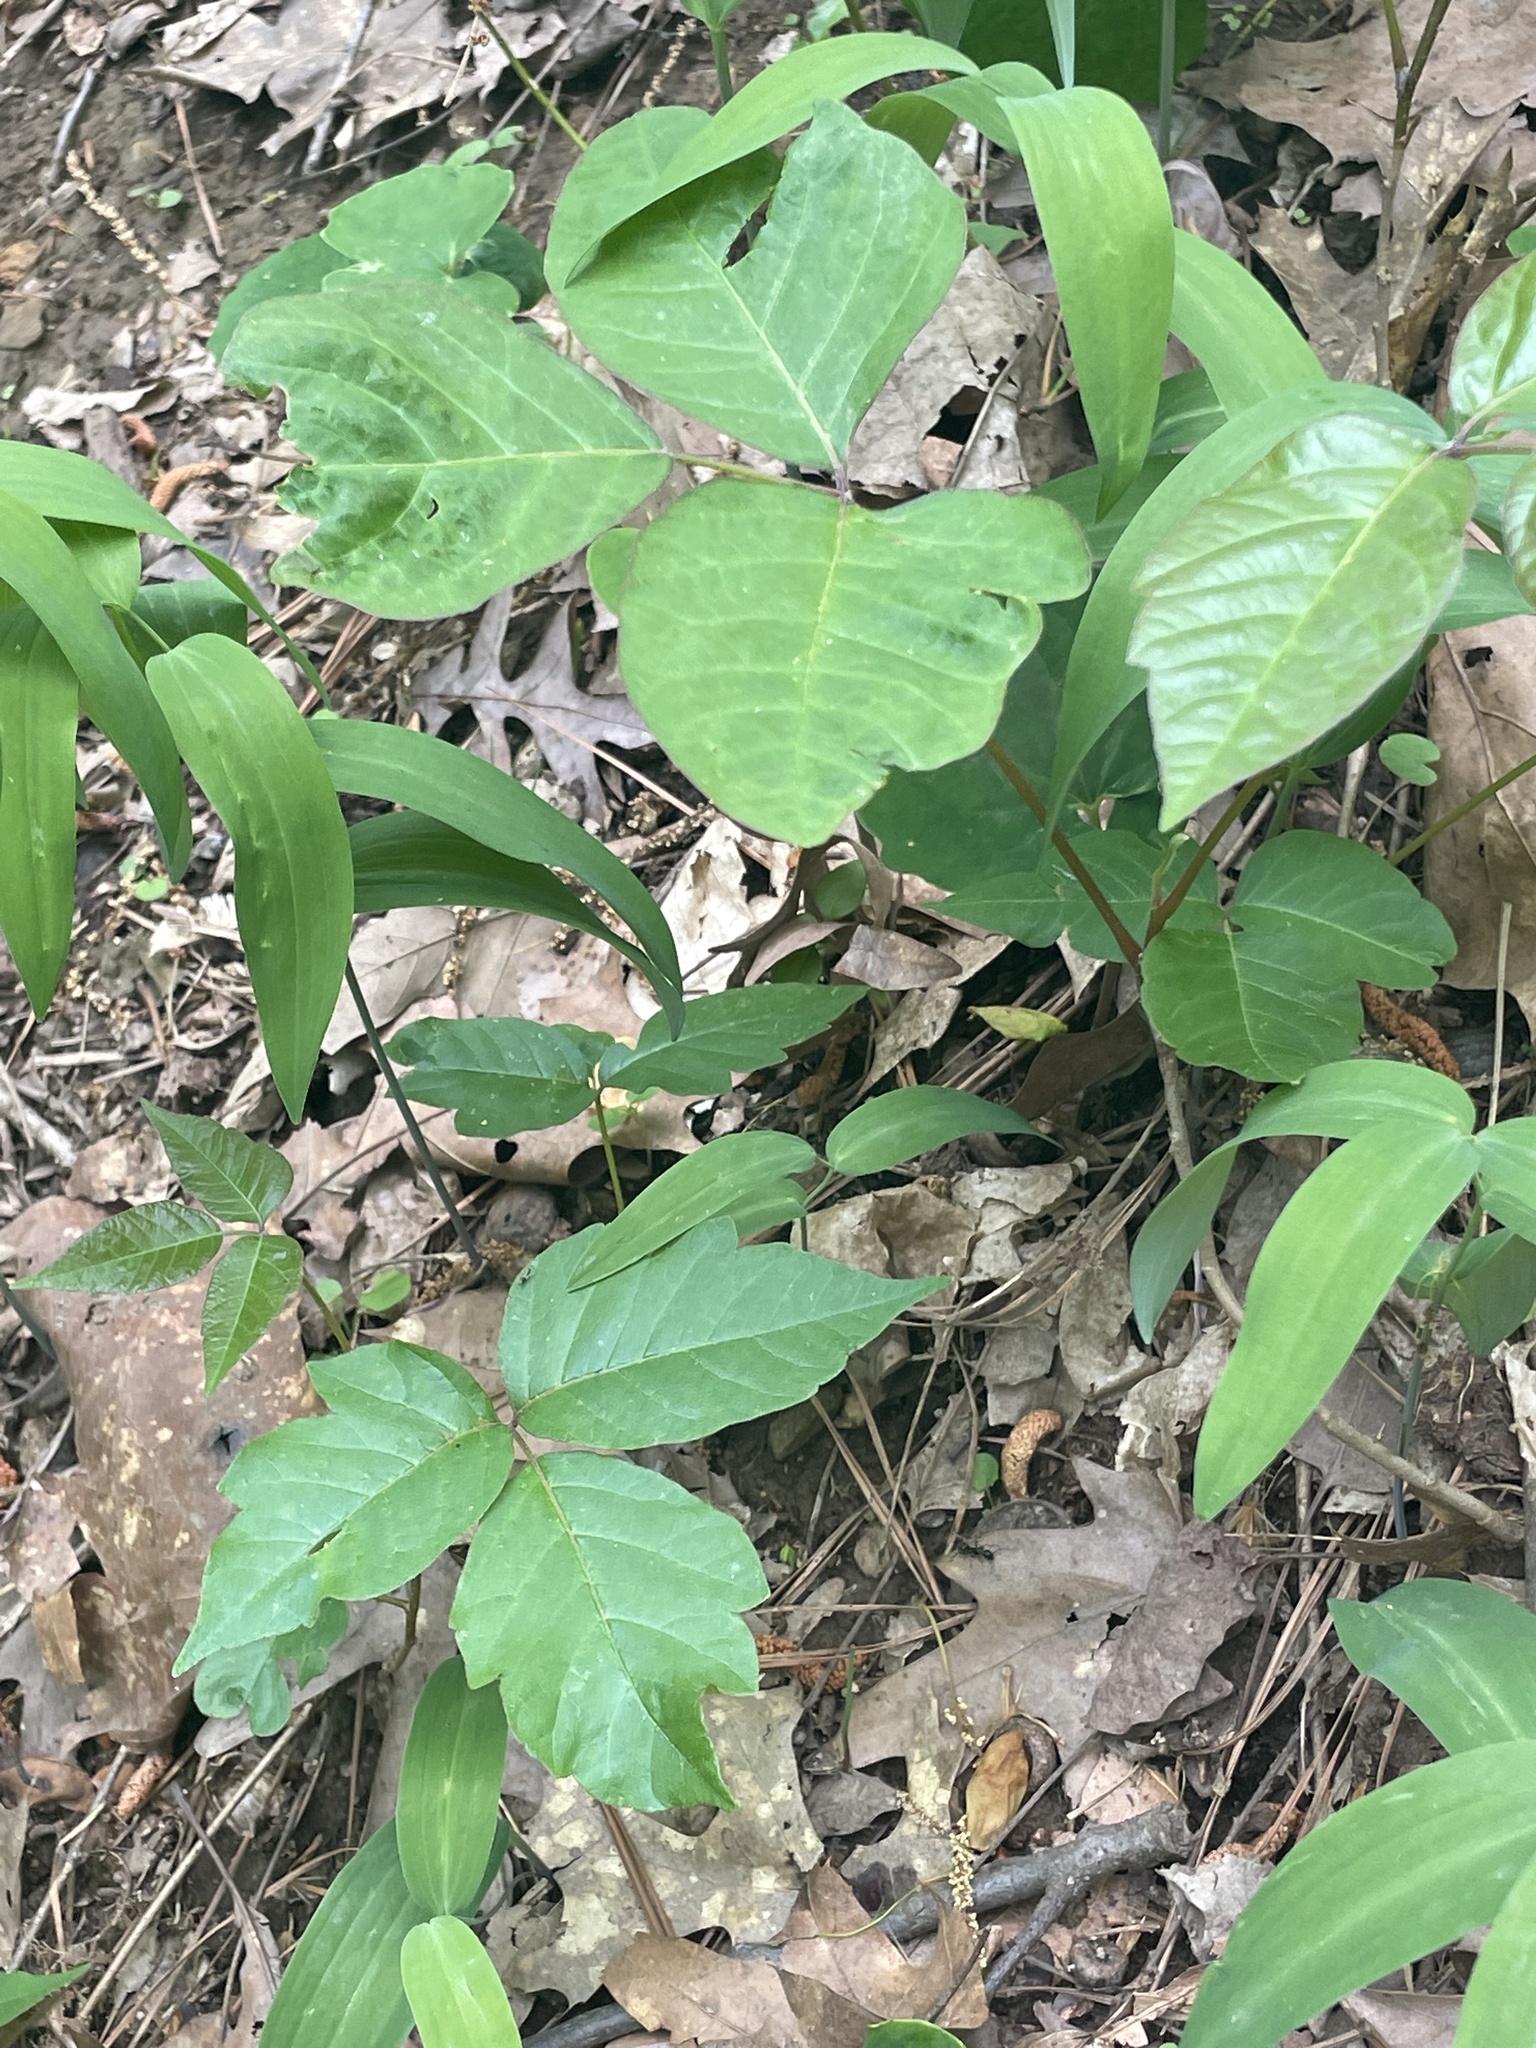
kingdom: Plantae
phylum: Tracheophyta
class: Magnoliopsida
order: Sapindales
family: Anacardiaceae
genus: Toxicodendron
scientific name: Toxicodendron radicans
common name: Poison ivy
